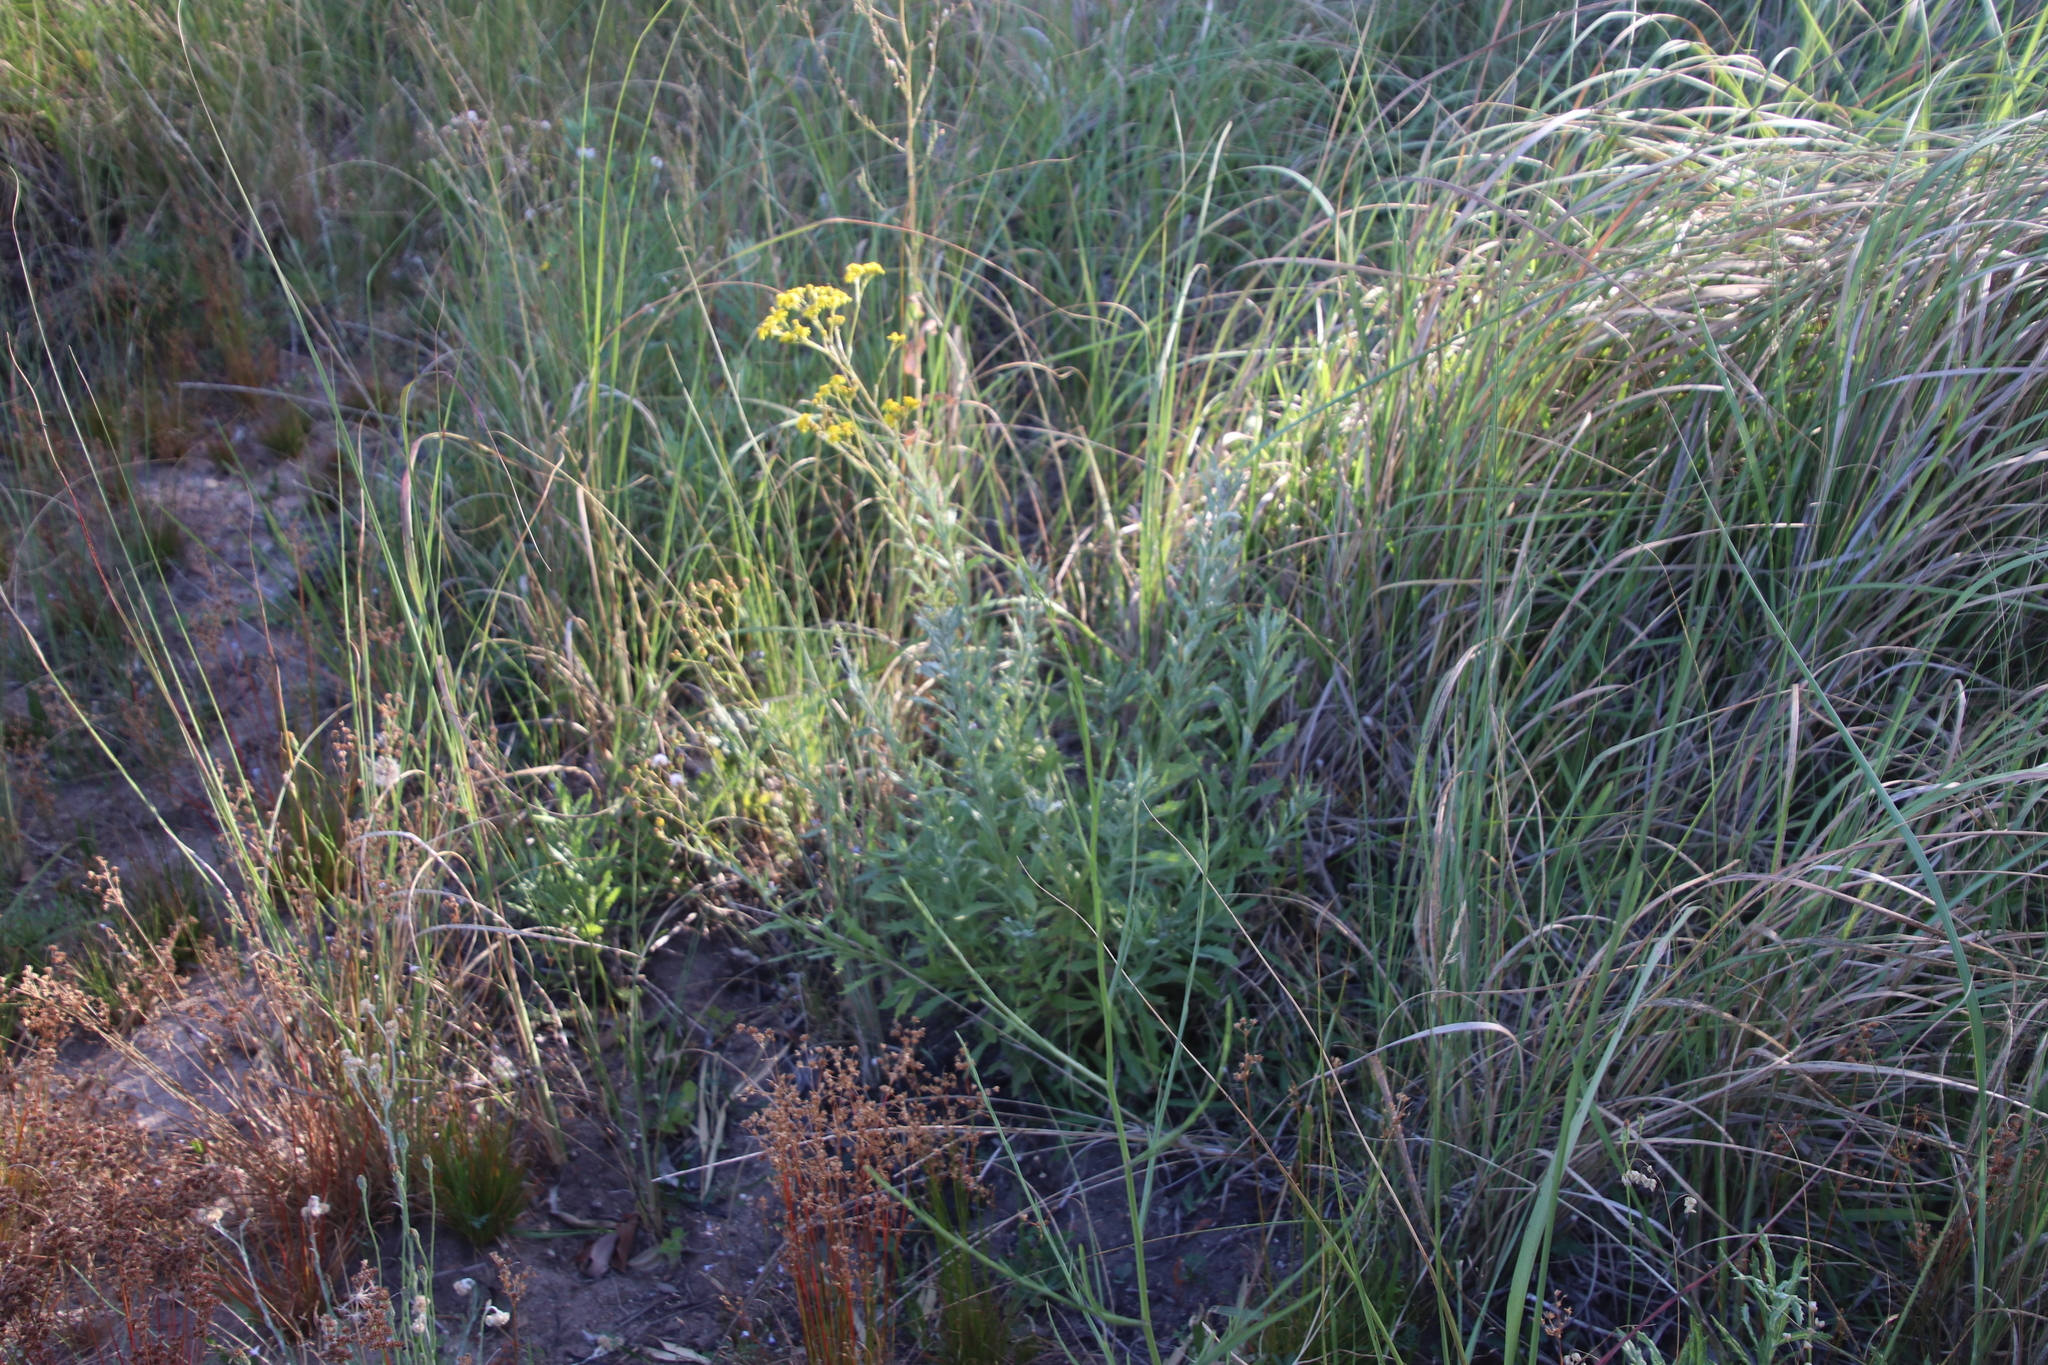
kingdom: Plantae
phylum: Tracheophyta
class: Magnoliopsida
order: Asterales
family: Asteraceae
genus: Senecio
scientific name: Senecio pterophorus
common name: Shoddy ragwort
